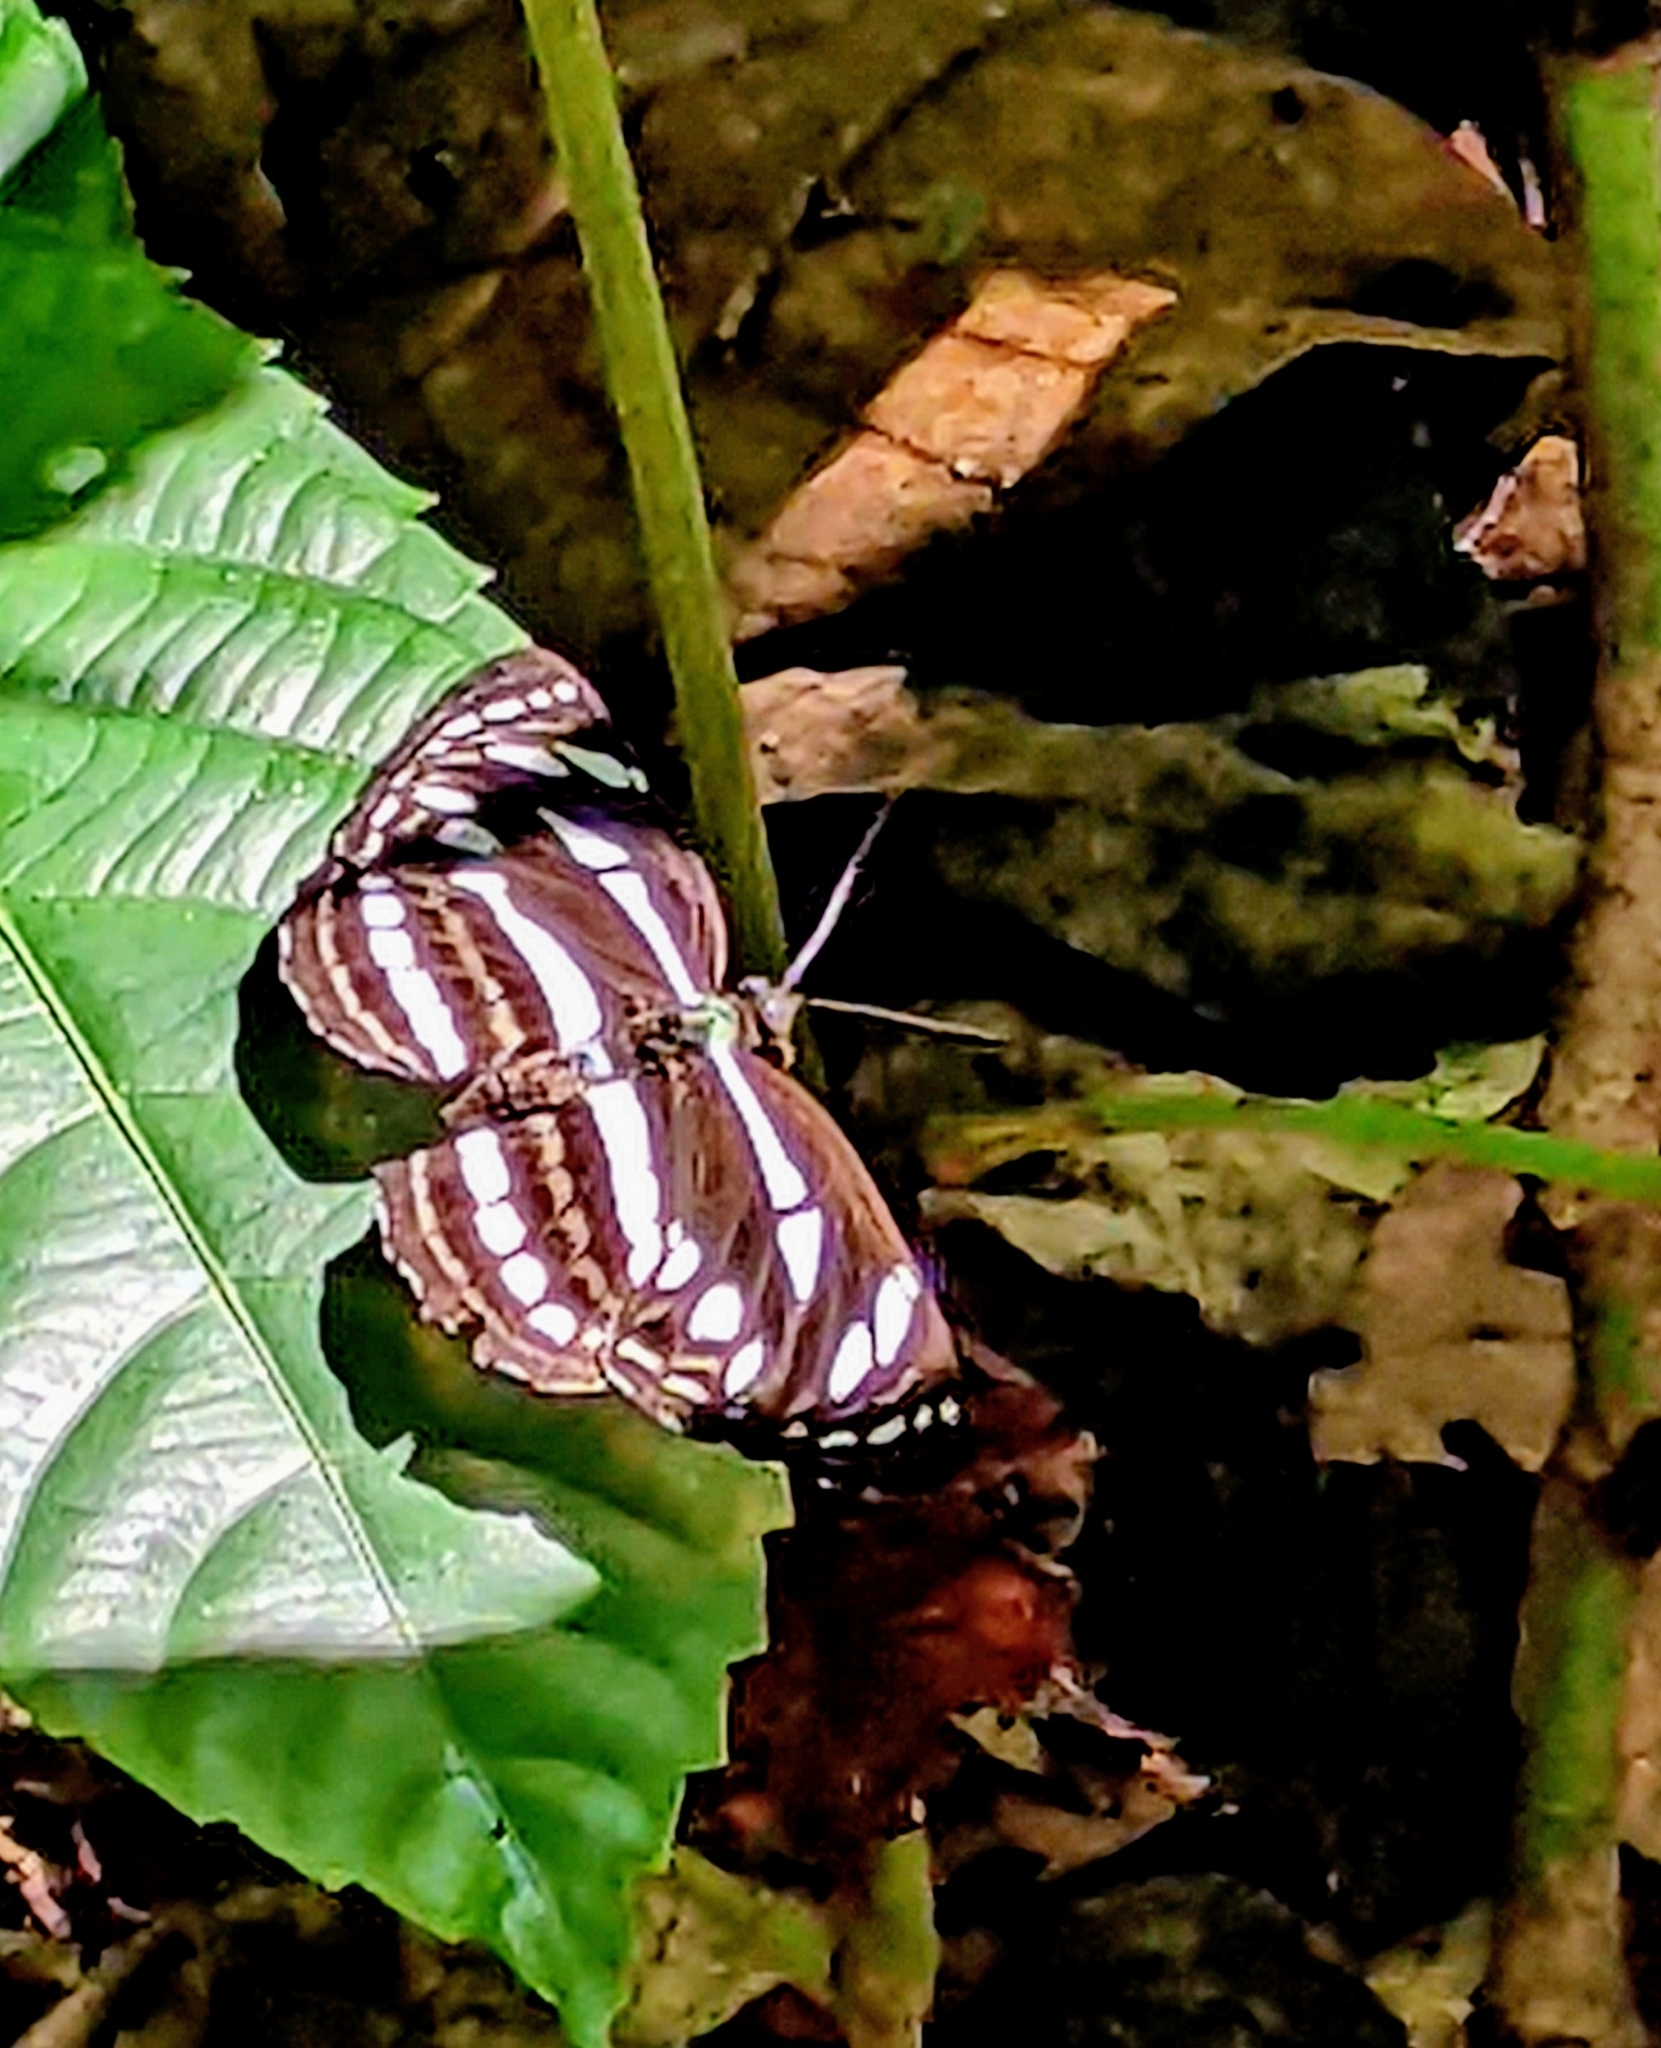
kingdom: Animalia
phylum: Arthropoda
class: Insecta
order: Lepidoptera
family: Nymphalidae
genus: Neptis
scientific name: Neptis leucoporos
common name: Grey sailer
